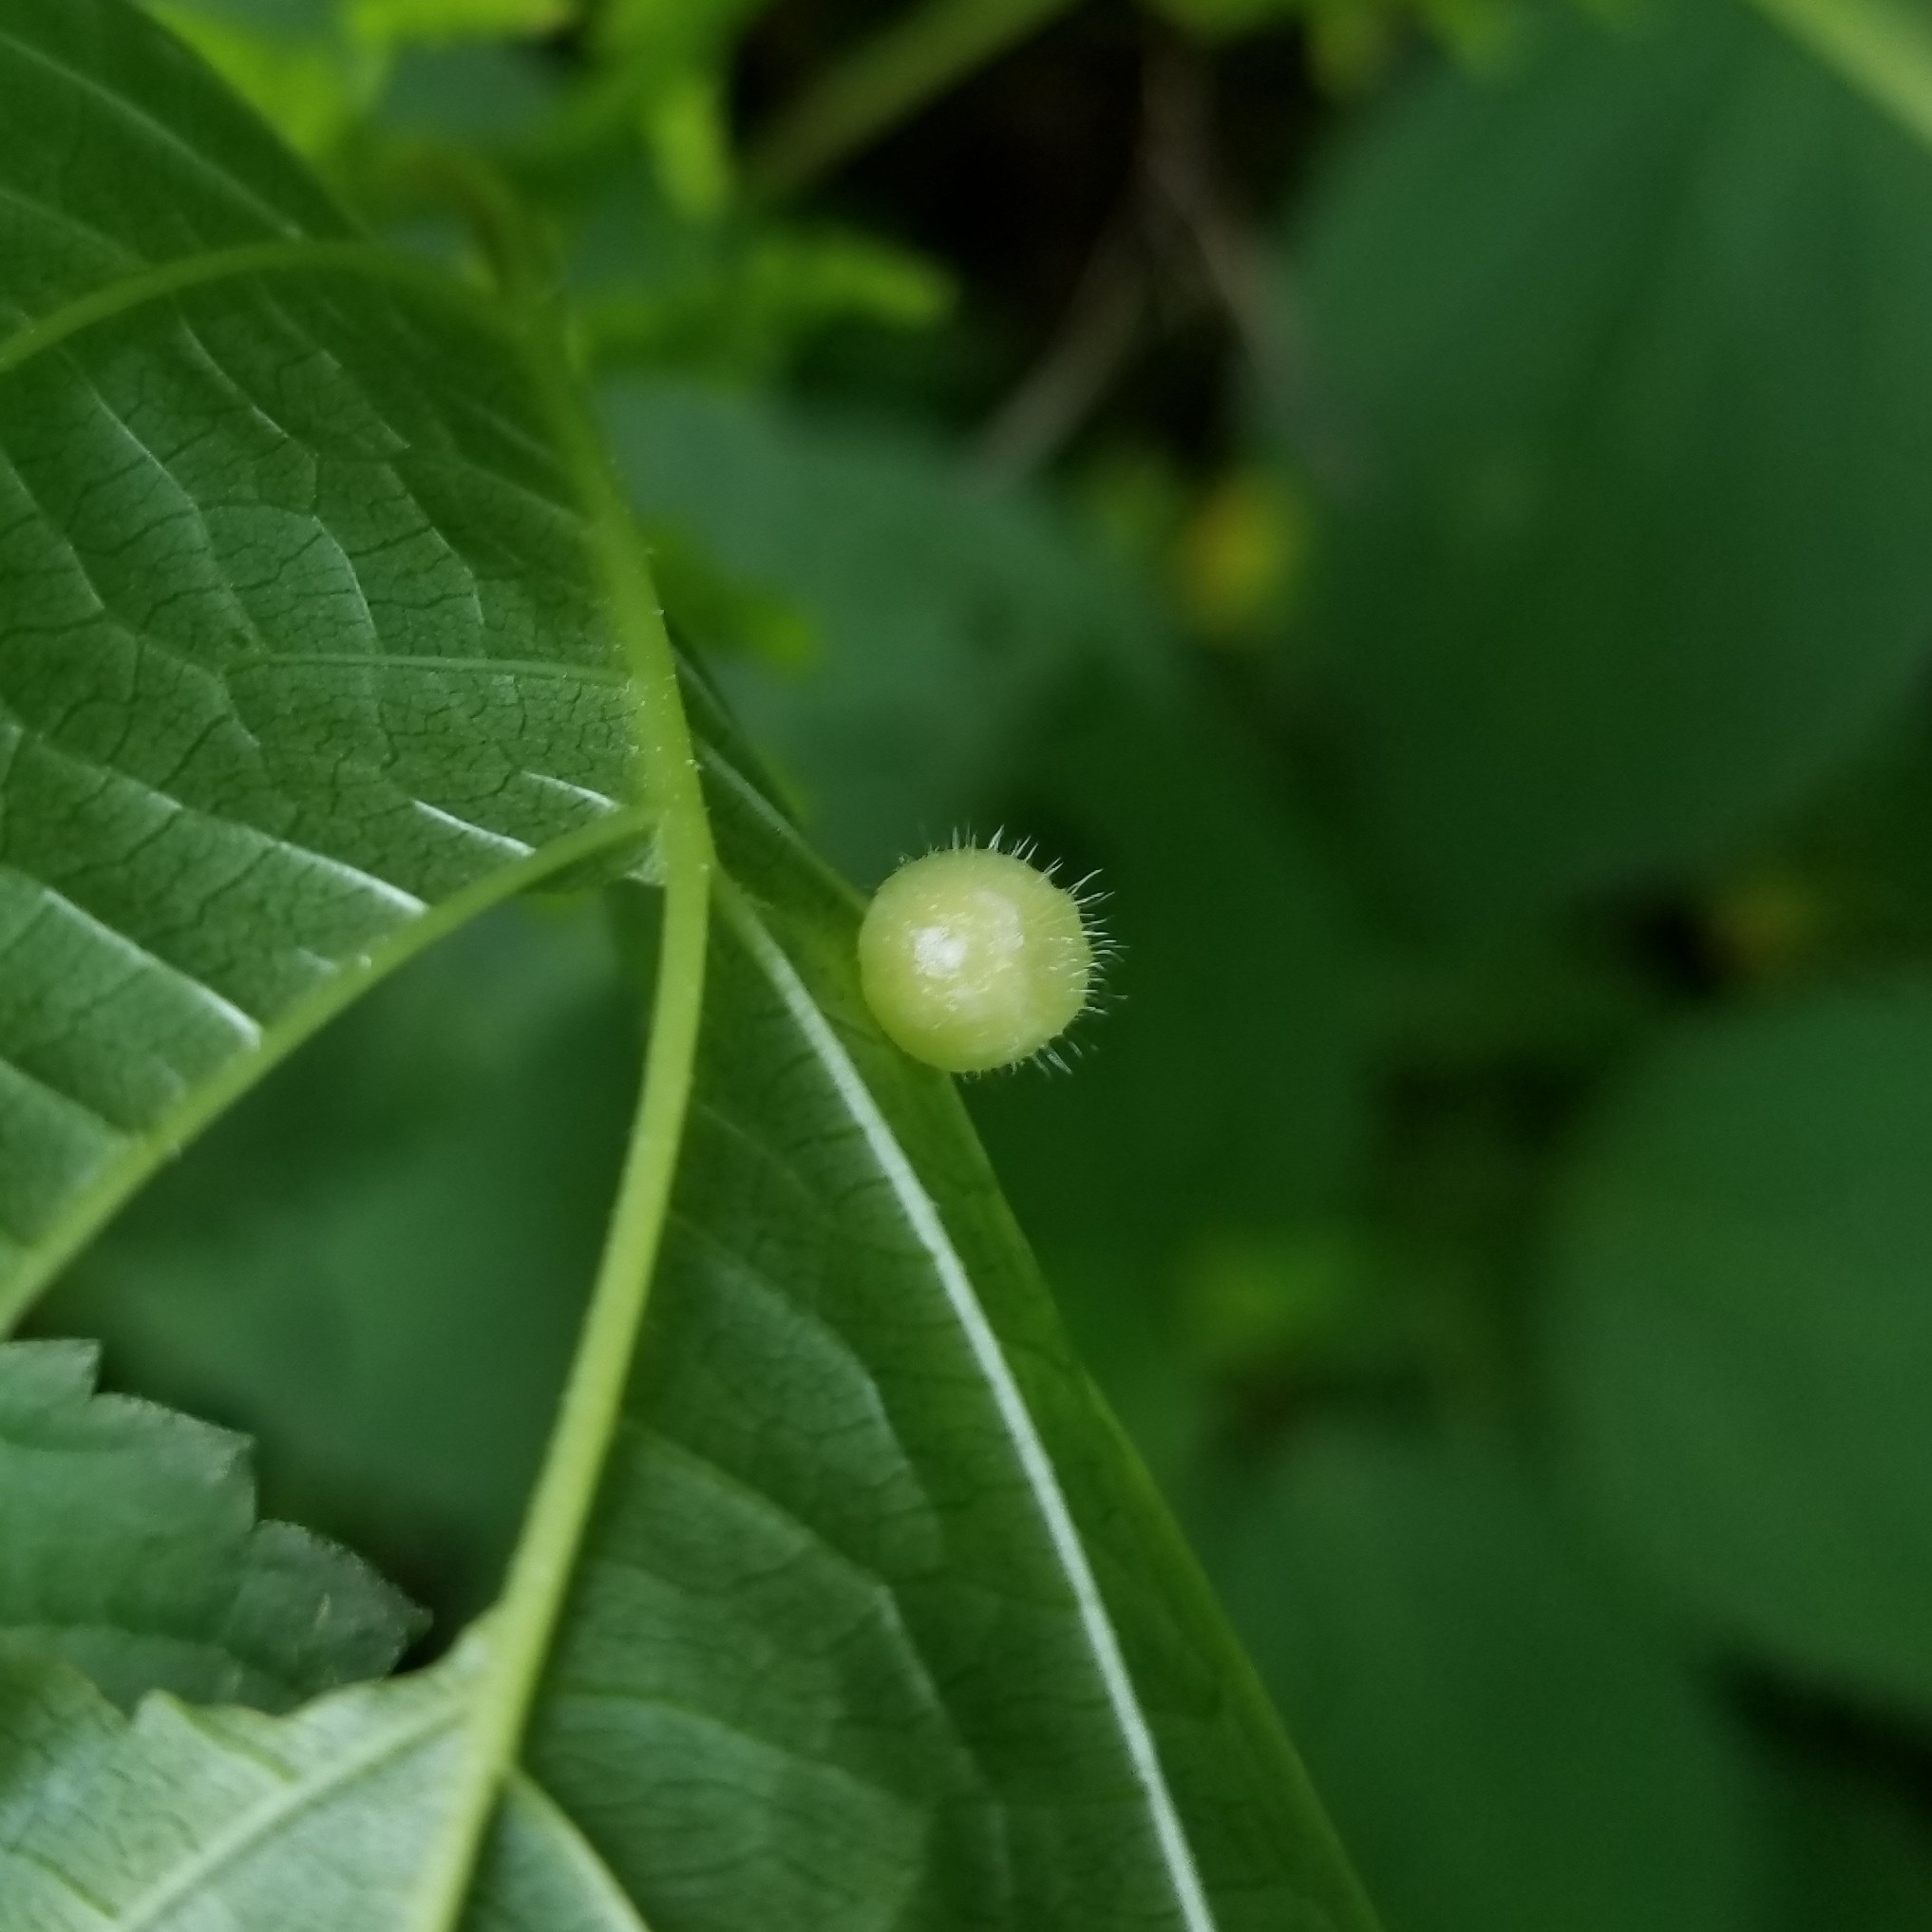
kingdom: Animalia
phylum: Arthropoda
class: Insecta
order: Diptera
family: Cecidomyiidae
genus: Dasineura
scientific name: Dasineura pilosa
